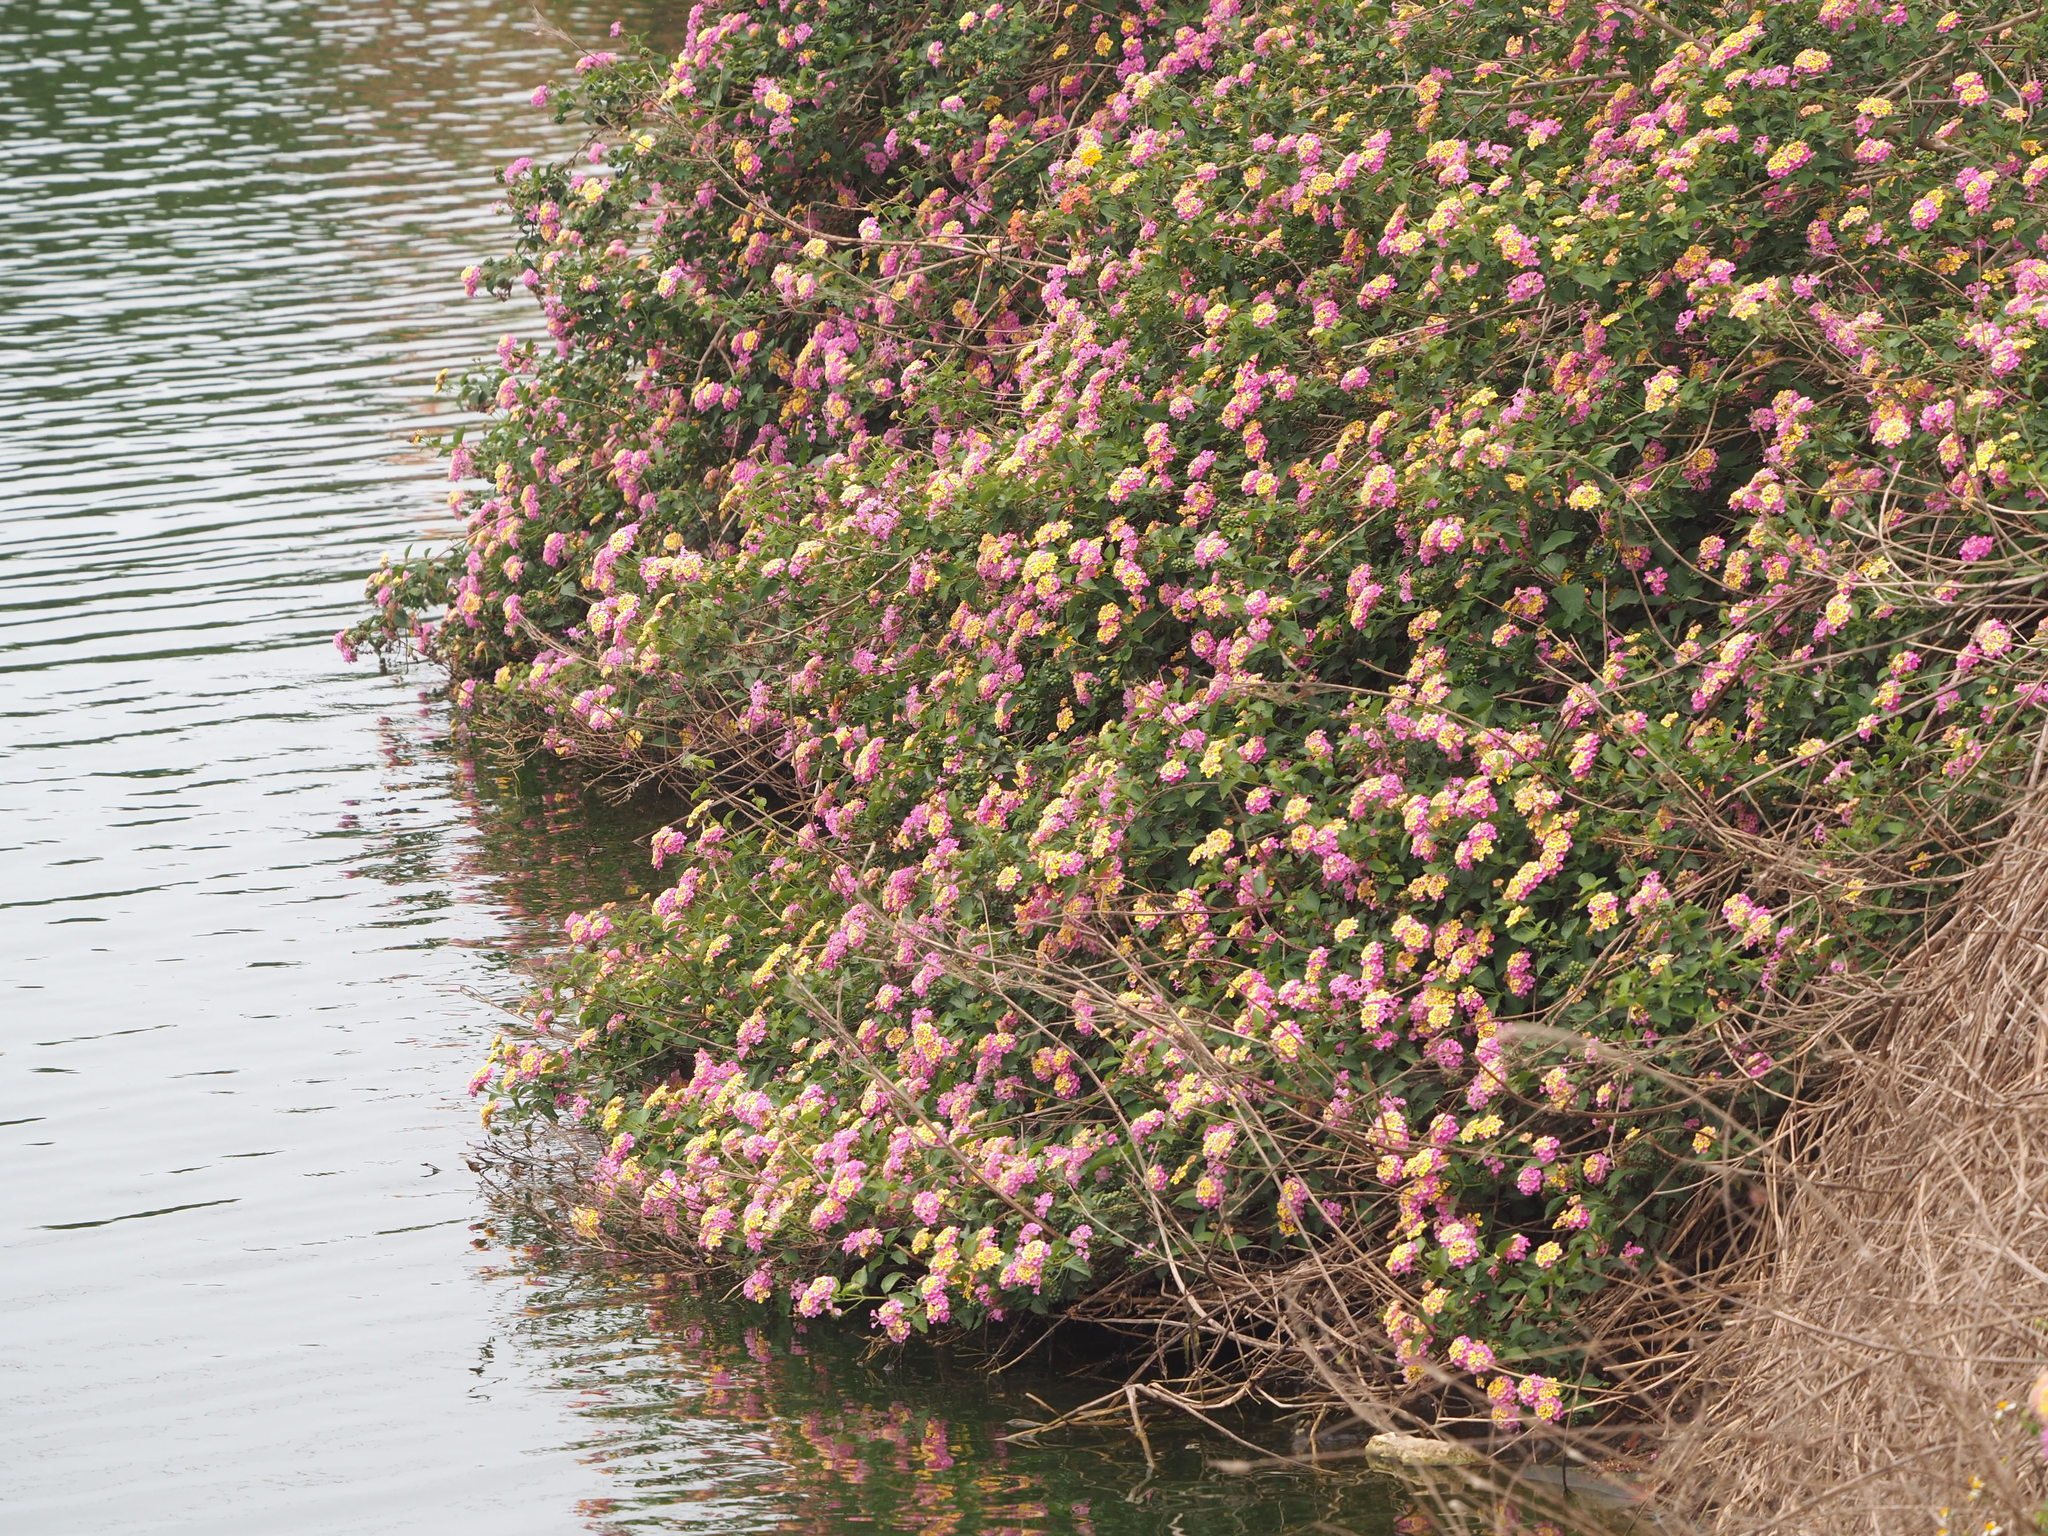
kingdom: Plantae
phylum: Tracheophyta
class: Magnoliopsida
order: Lamiales
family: Verbenaceae
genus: Lantana
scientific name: Lantana camara
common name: Lantana
